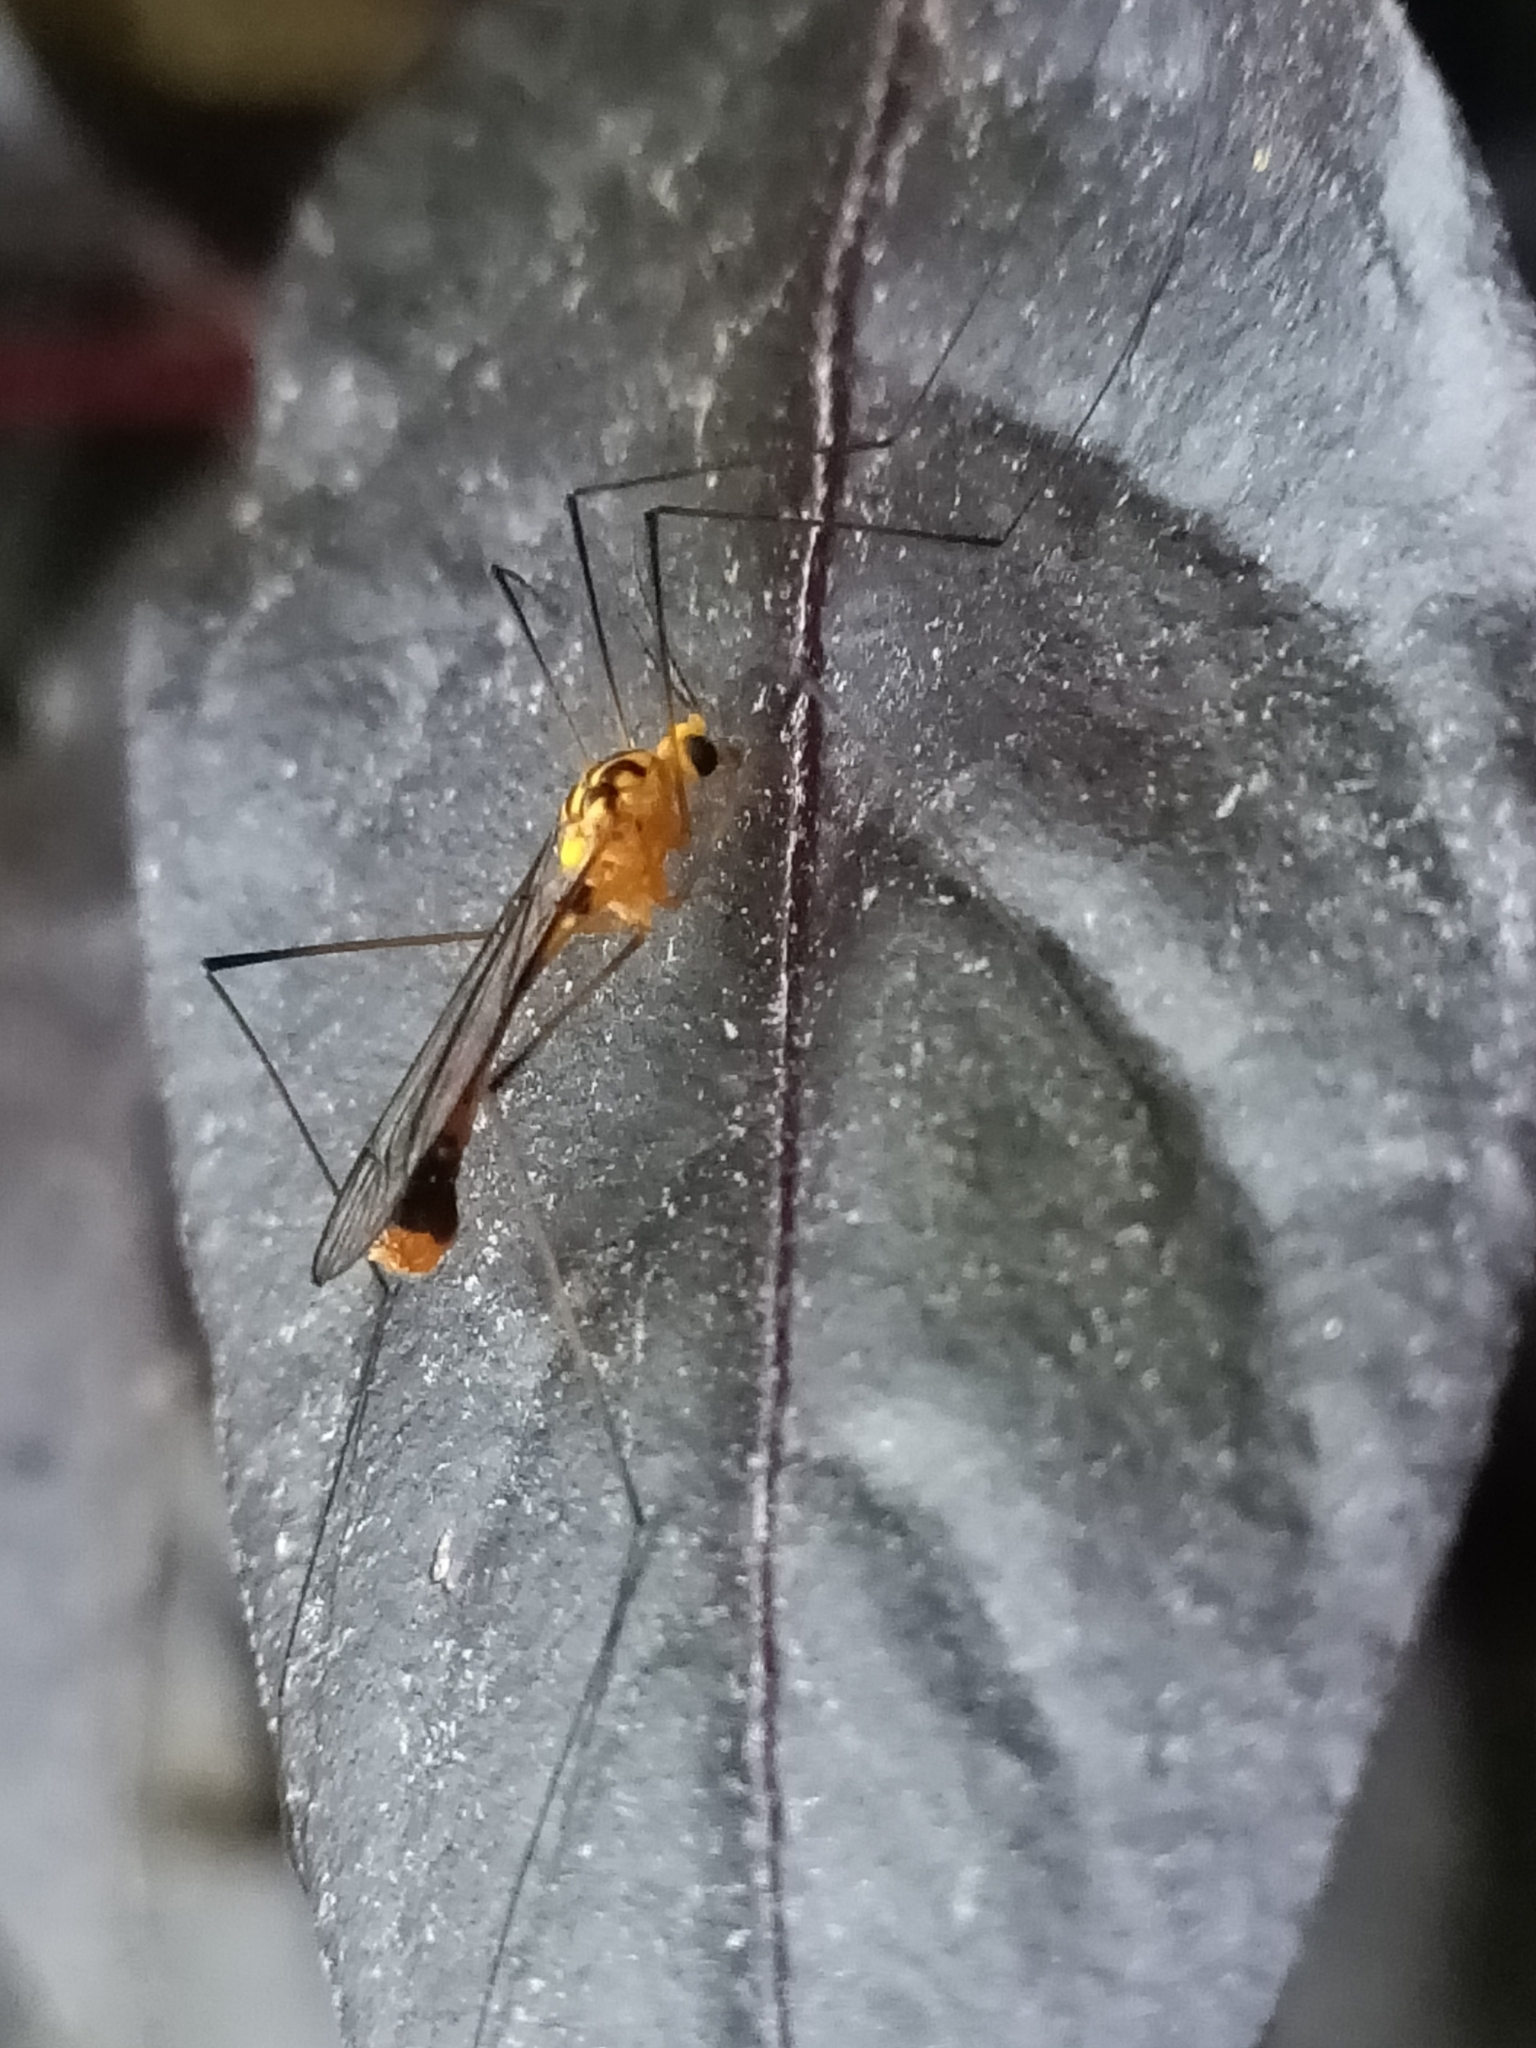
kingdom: Animalia
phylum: Arthropoda
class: Insecta
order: Diptera
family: Tipulidae
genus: Nephrotoma
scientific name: Nephrotoma australasiae
